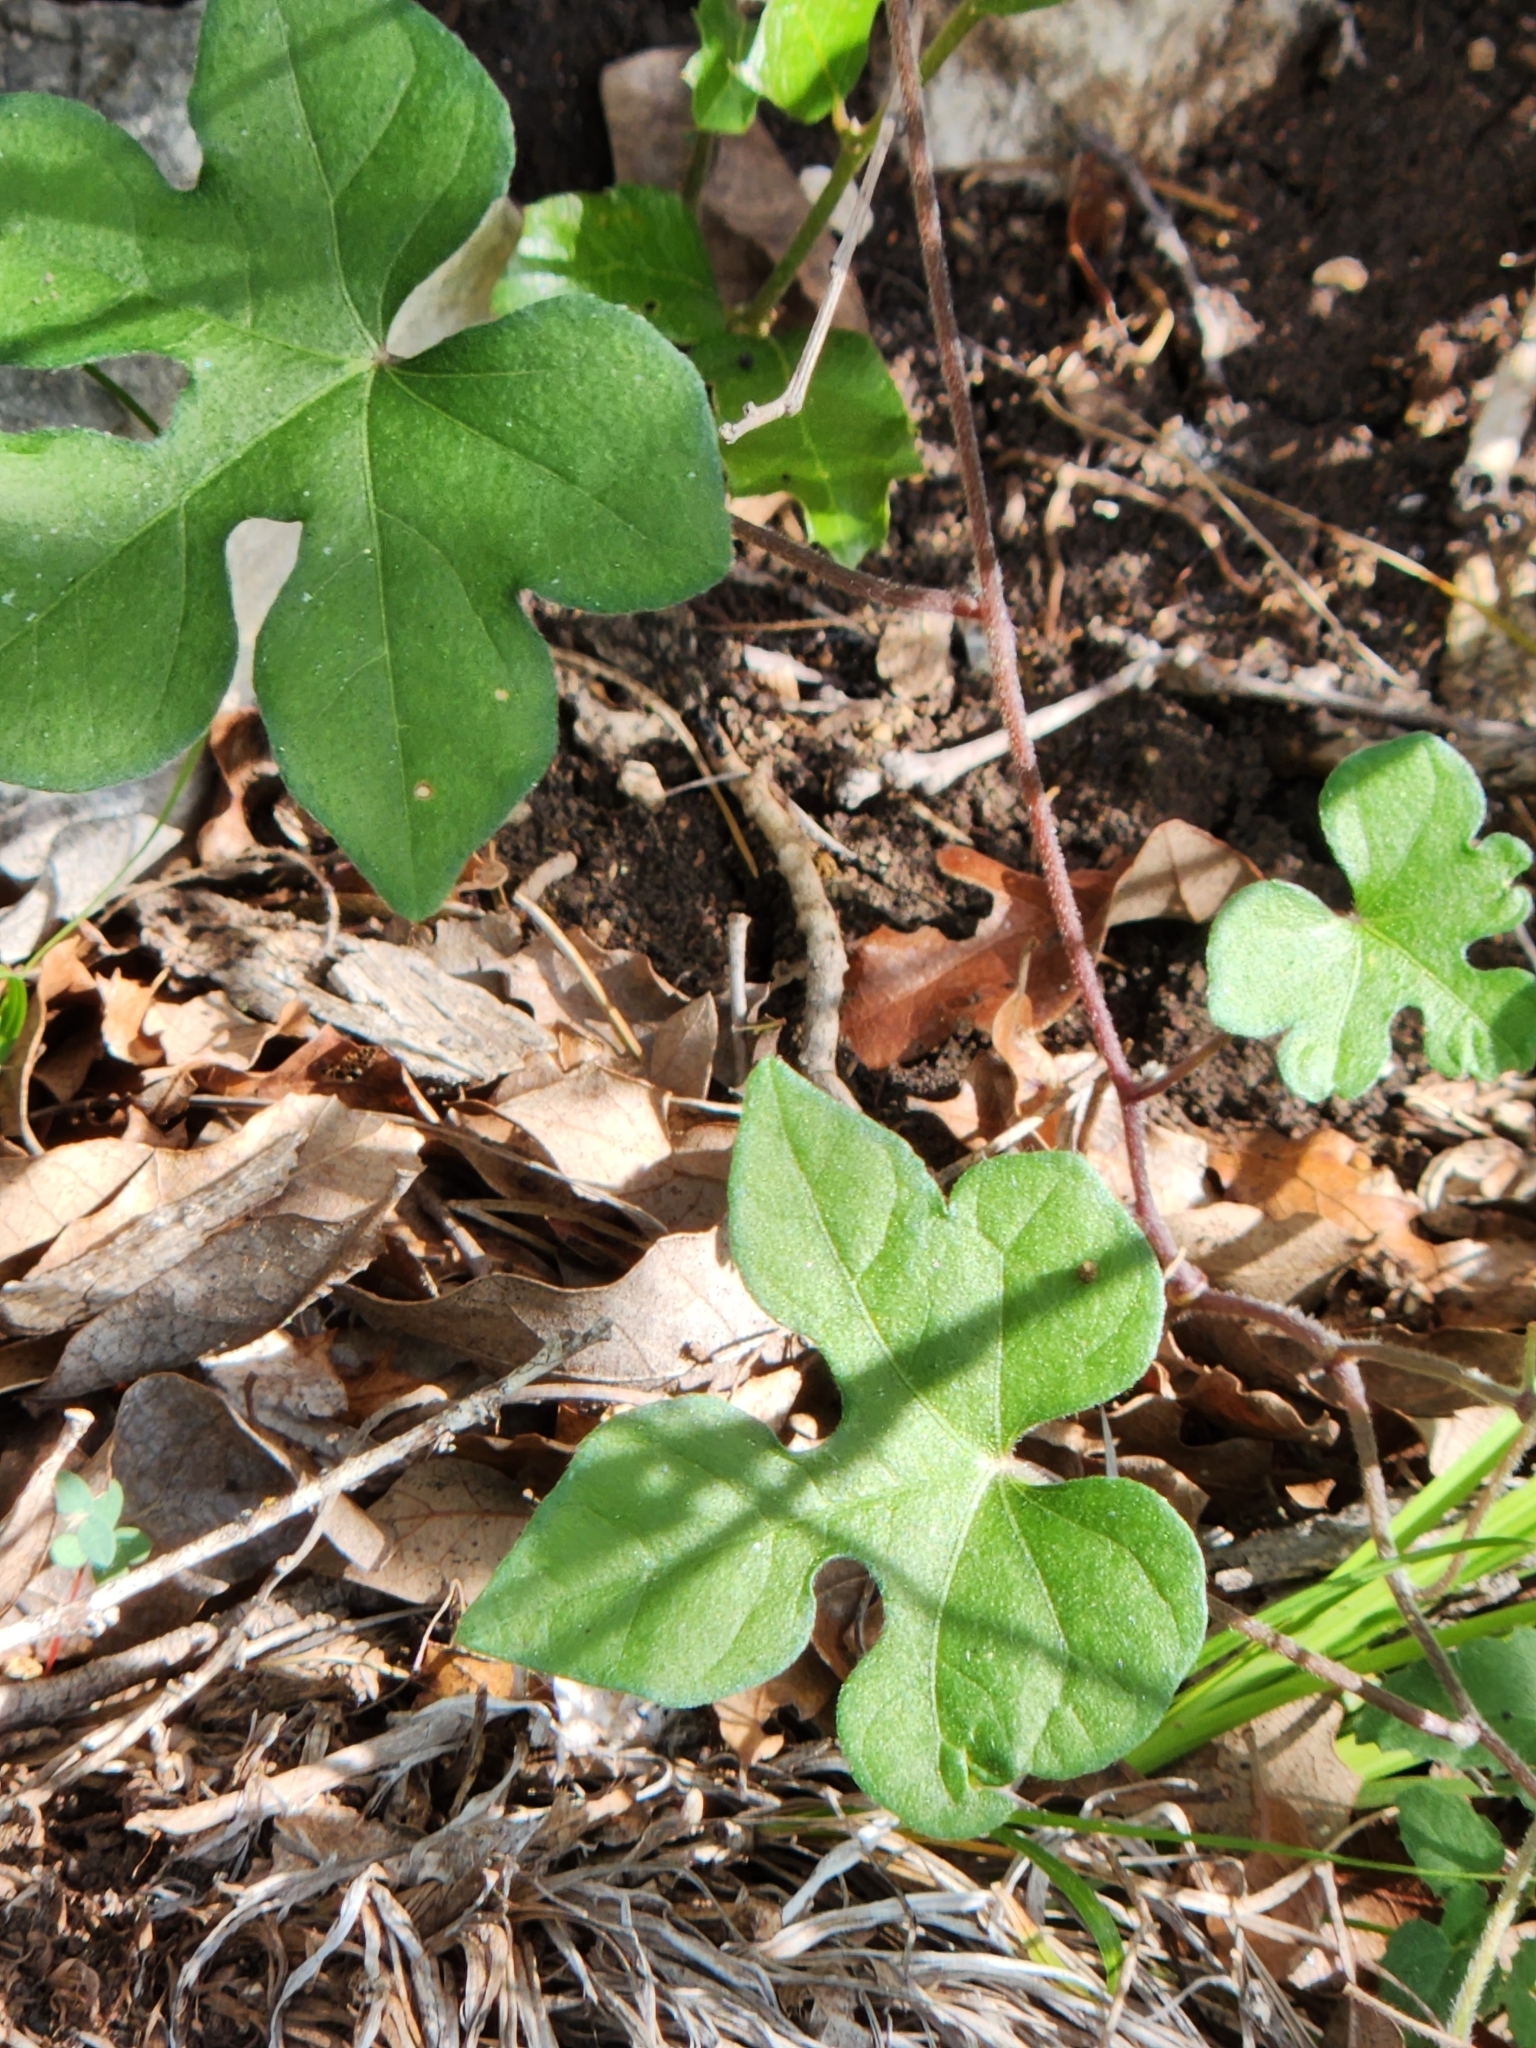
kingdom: Plantae
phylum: Tracheophyta
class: Magnoliopsida
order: Solanales
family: Convolvulaceae
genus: Ipomoea
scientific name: Ipomoea lindheimeri
